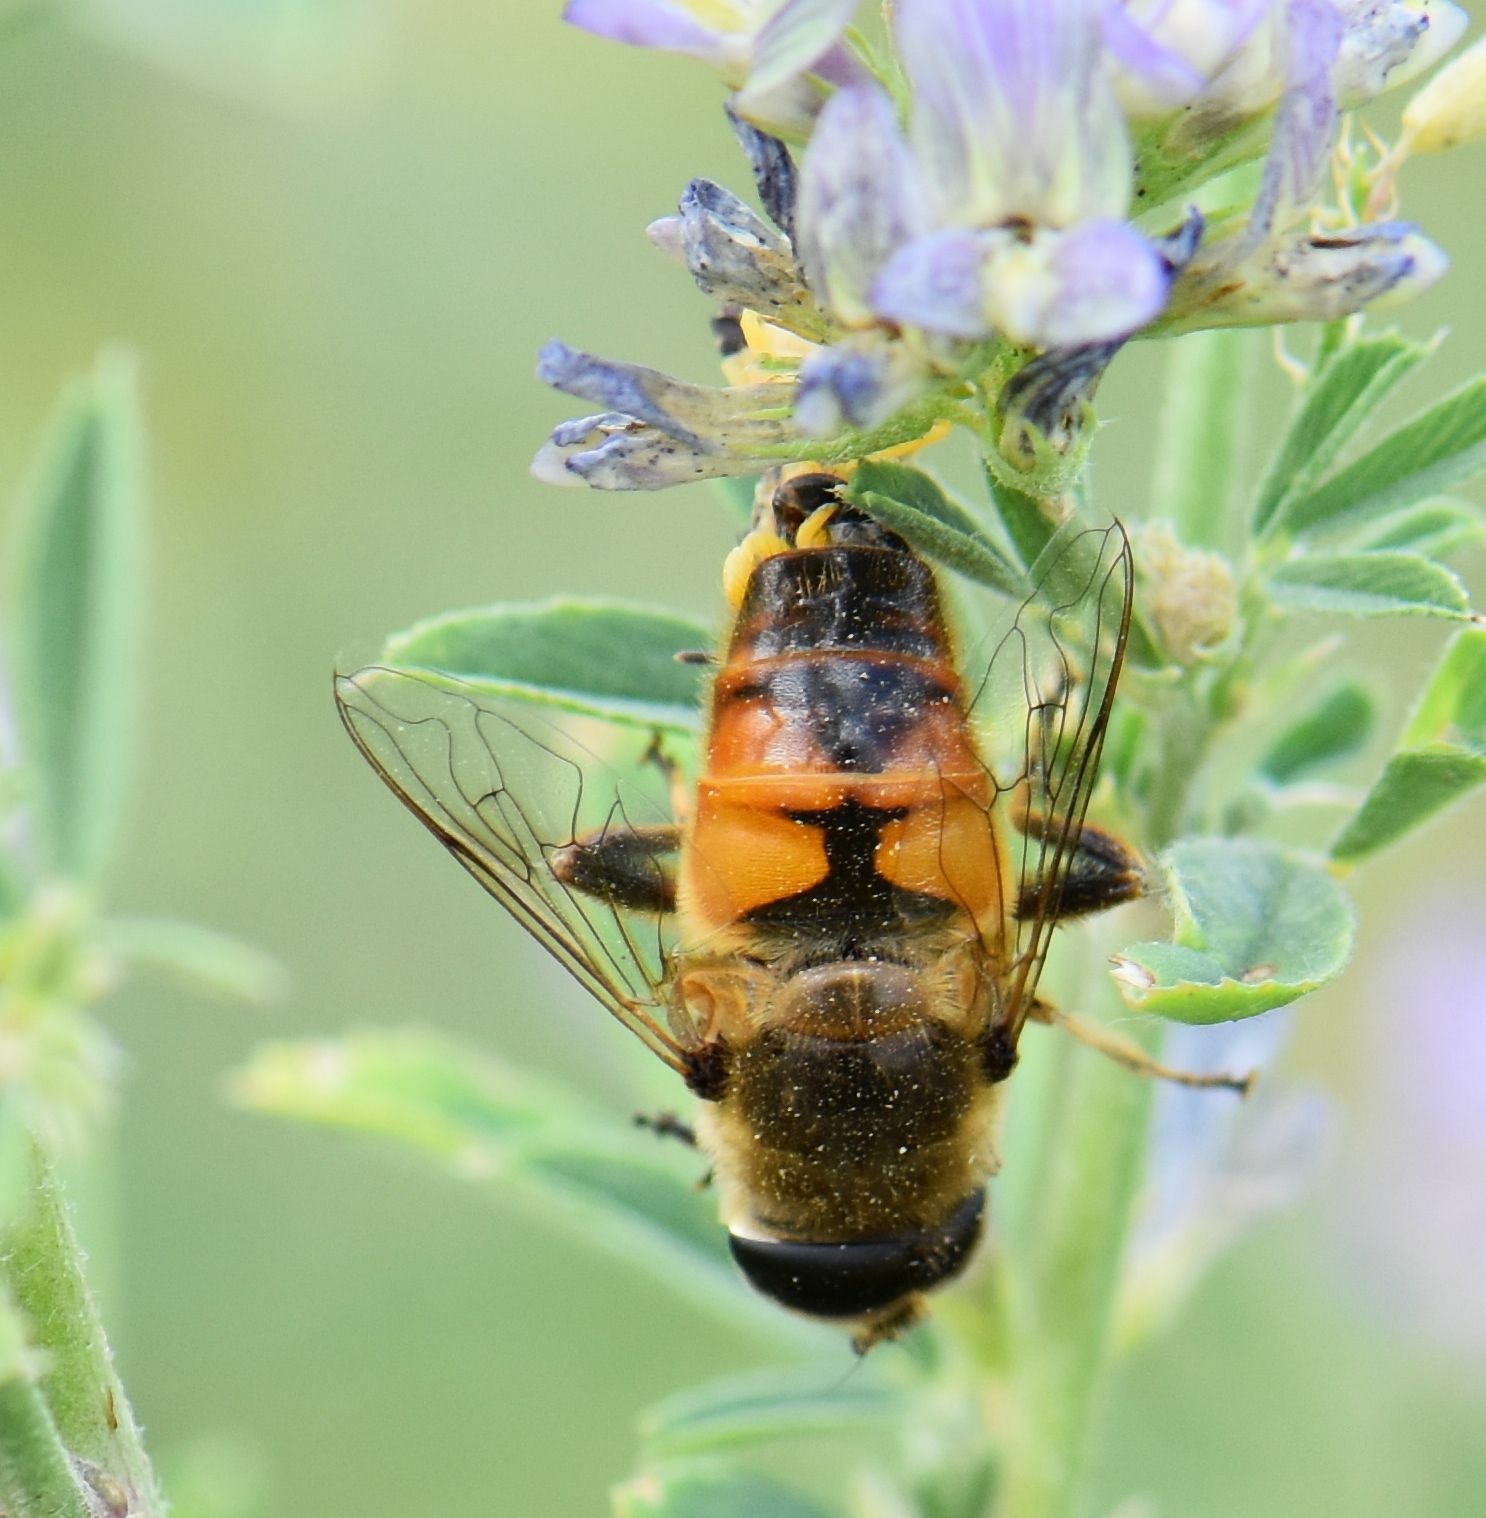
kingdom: Animalia
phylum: Arthropoda
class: Insecta
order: Diptera
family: Syrphidae
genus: Eristalis
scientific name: Eristalis tenax
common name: Drone fly
